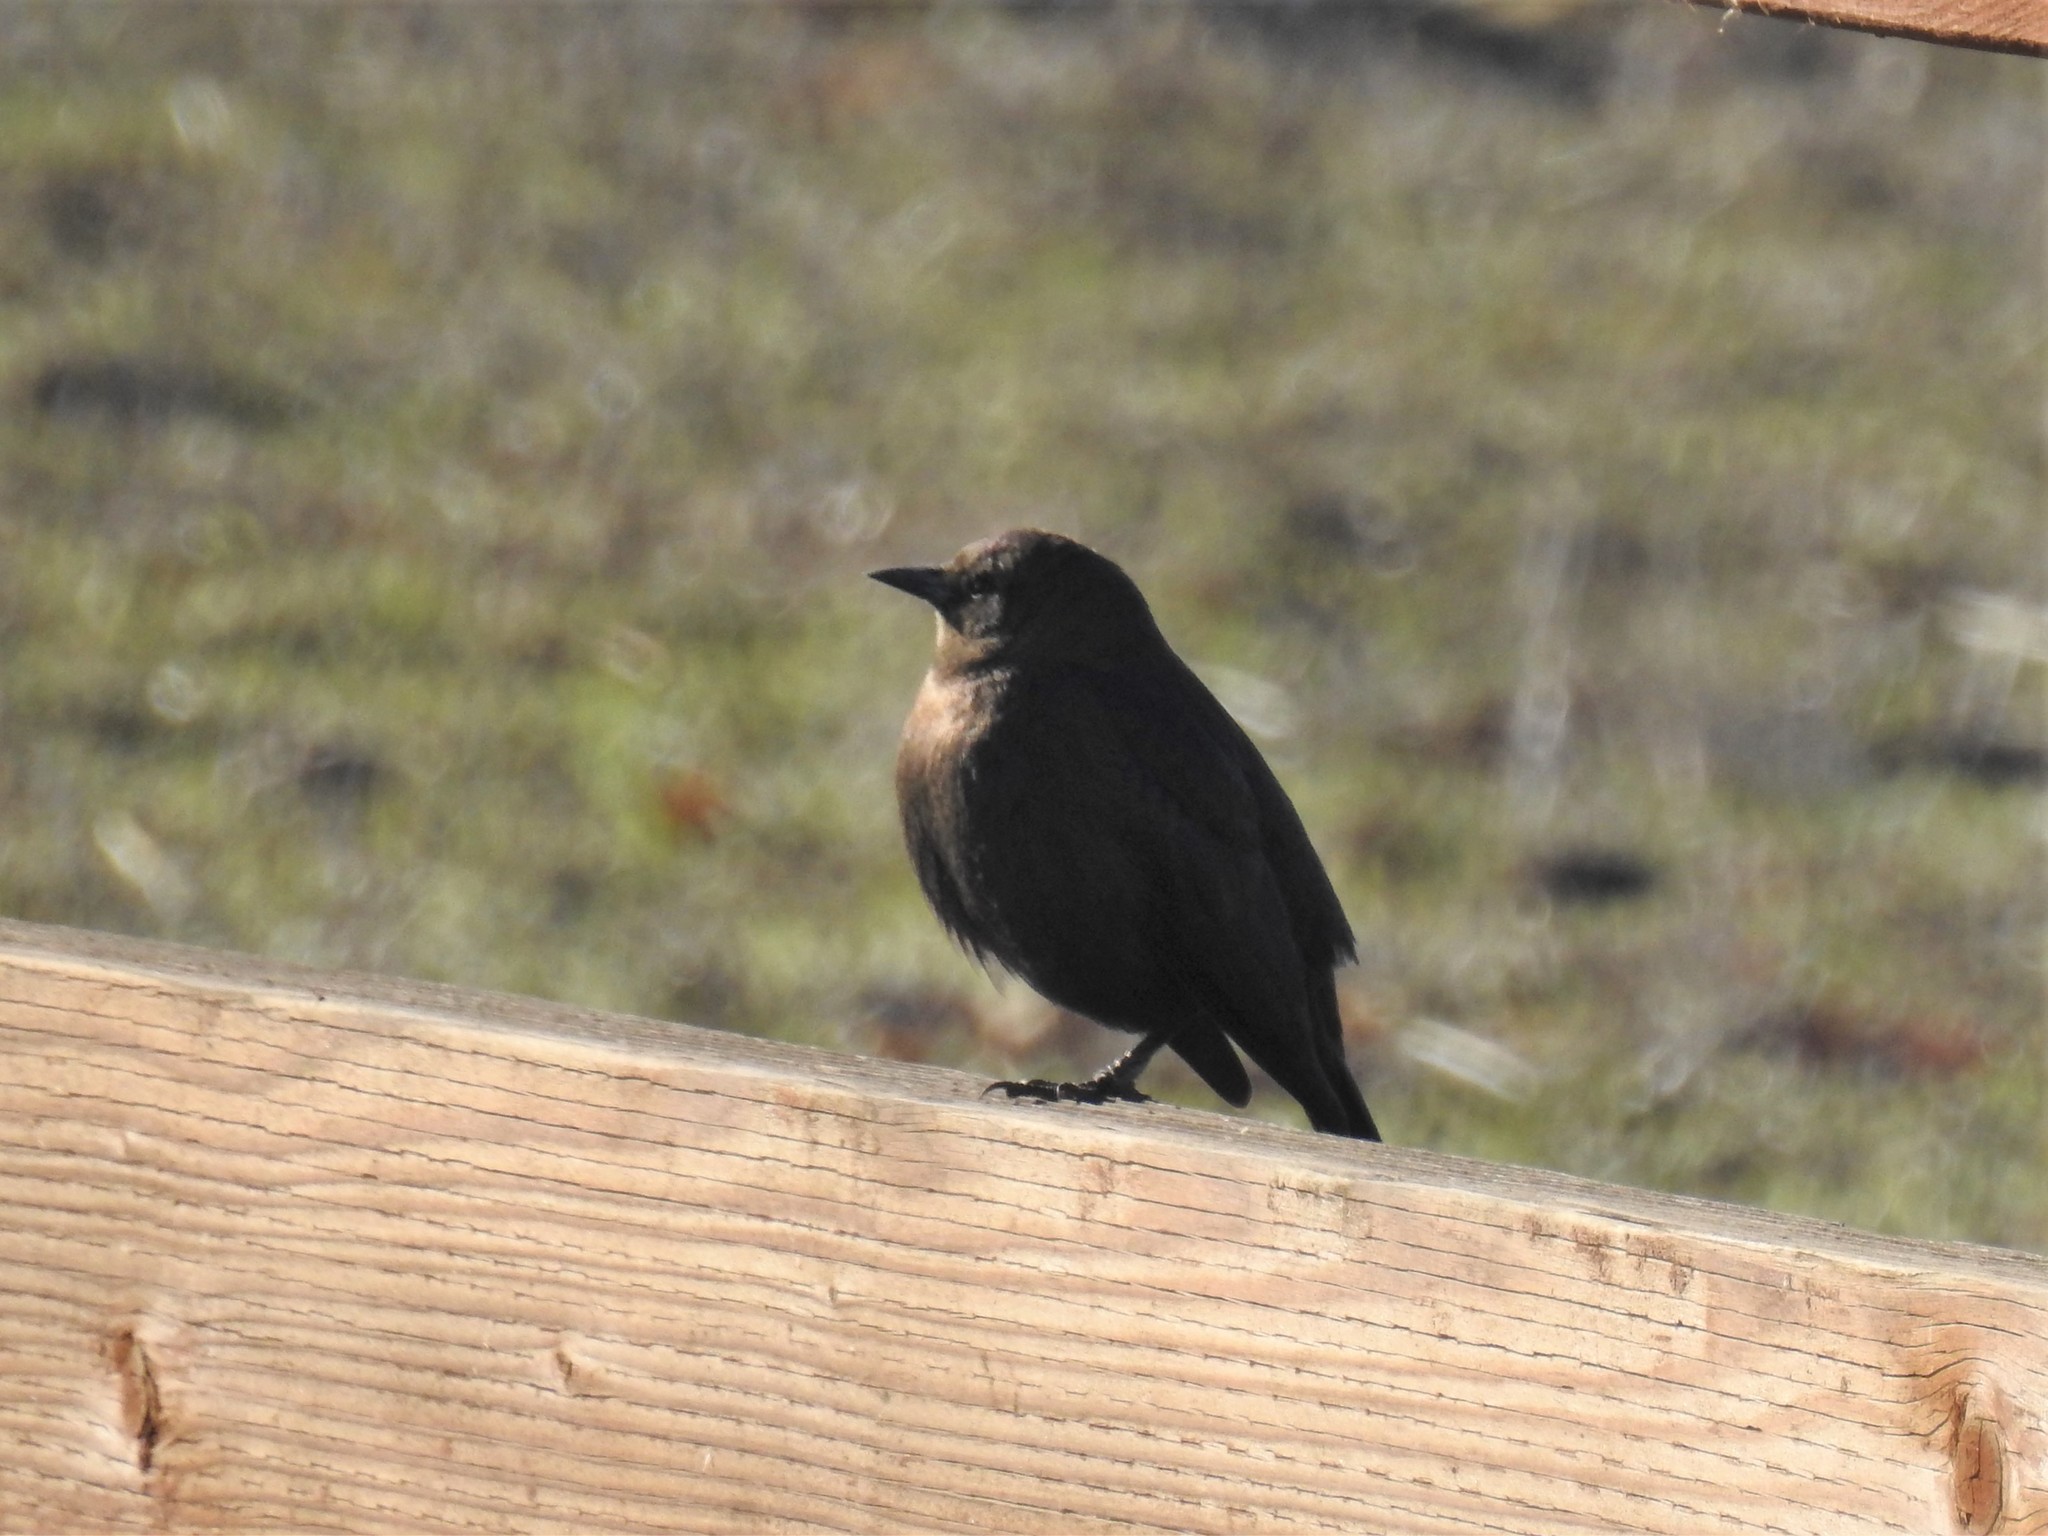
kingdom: Animalia
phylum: Chordata
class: Aves
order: Passeriformes
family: Icteridae
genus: Euphagus
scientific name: Euphagus cyanocephalus
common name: Brewer's blackbird
